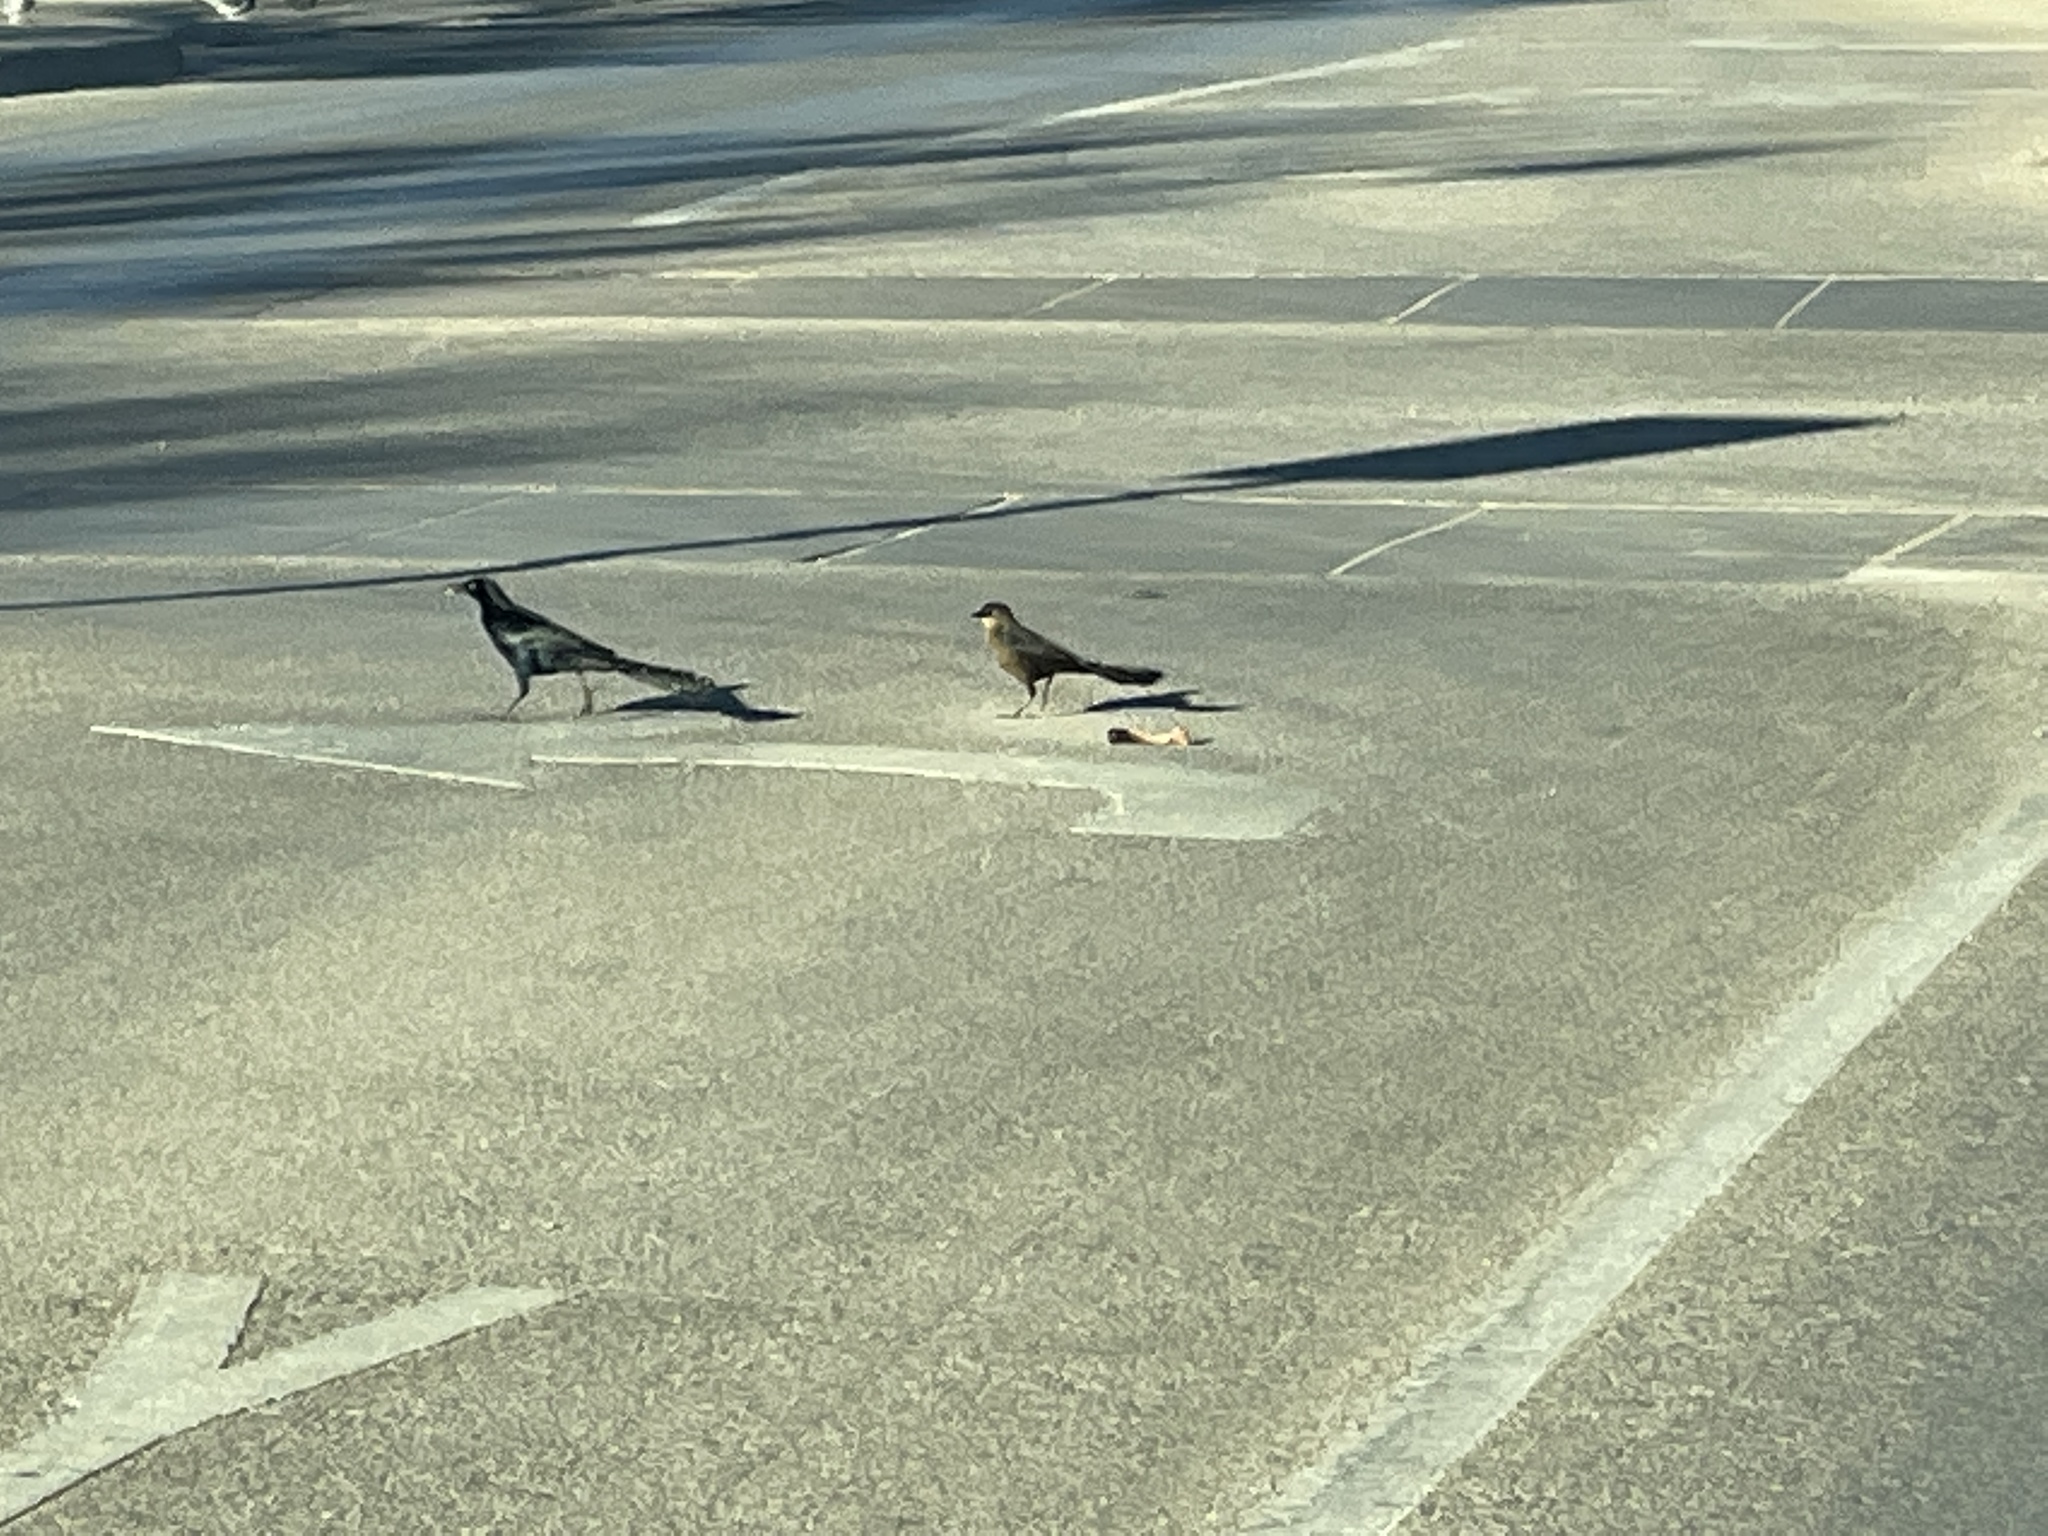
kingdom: Animalia
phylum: Chordata
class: Aves
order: Passeriformes
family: Icteridae
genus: Quiscalus
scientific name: Quiscalus mexicanus
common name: Great-tailed grackle
